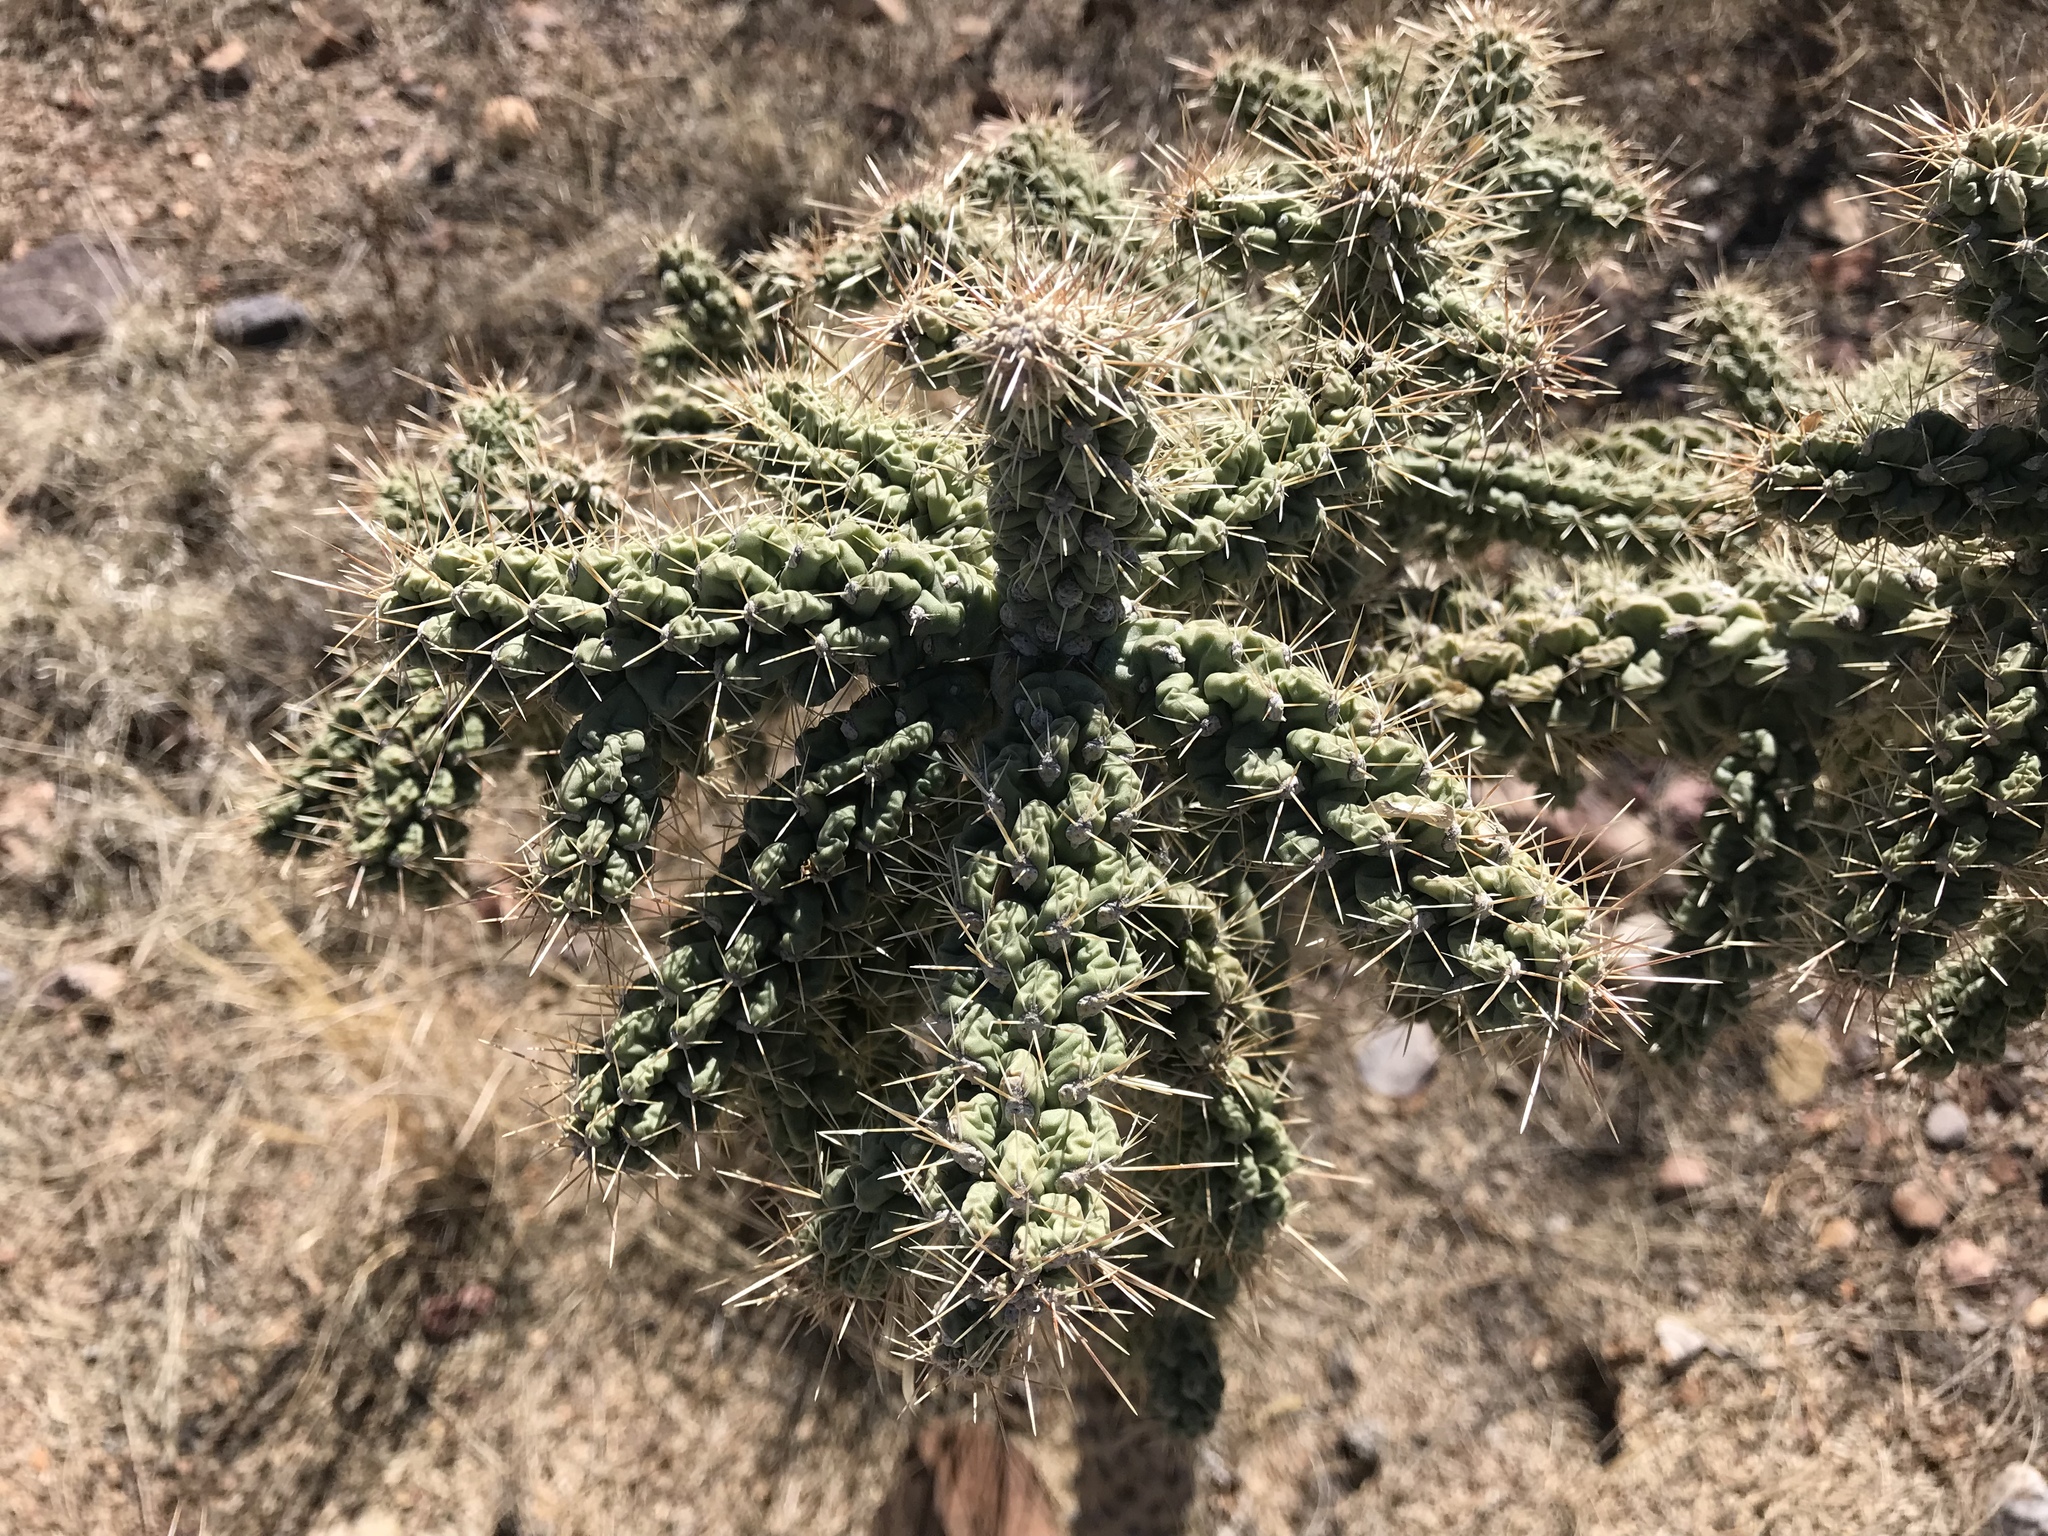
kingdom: Plantae
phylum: Tracheophyta
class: Magnoliopsida
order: Caryophyllales
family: Cactaceae
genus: Cylindropuntia
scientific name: Cylindropuntia fulgida
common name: Jumping cholla
